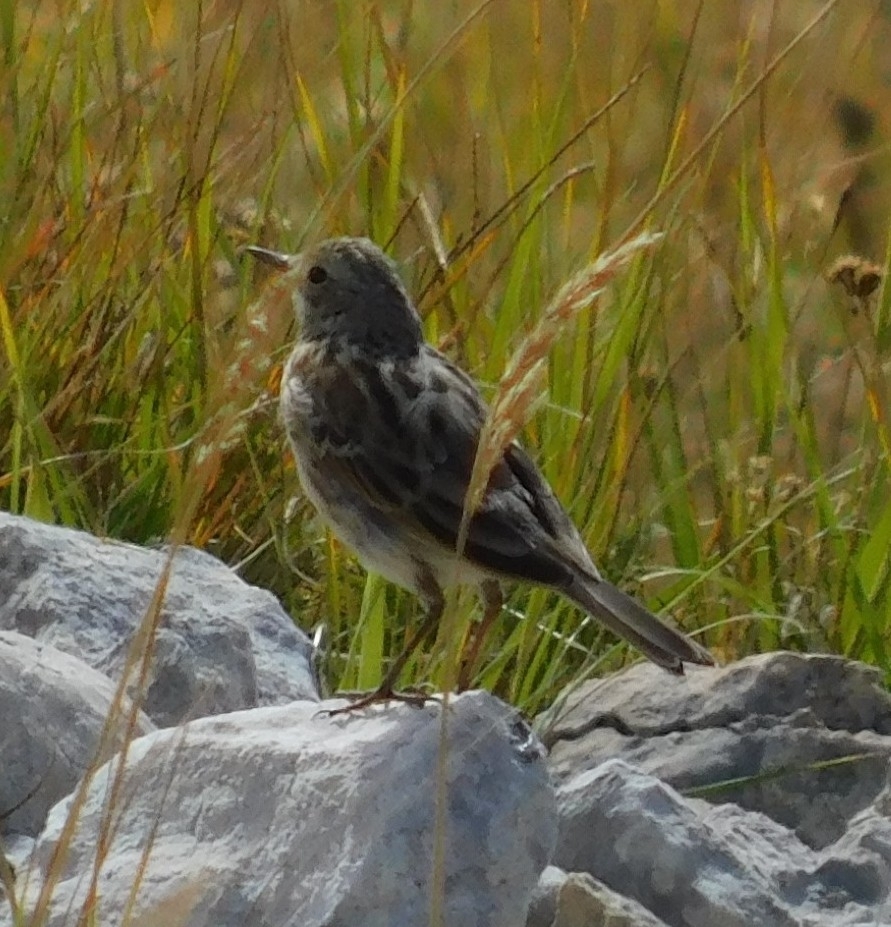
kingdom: Animalia
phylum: Chordata
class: Aves
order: Passeriformes
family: Motacillidae
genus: Anthus
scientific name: Anthus spinoletta
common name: Water pipit
